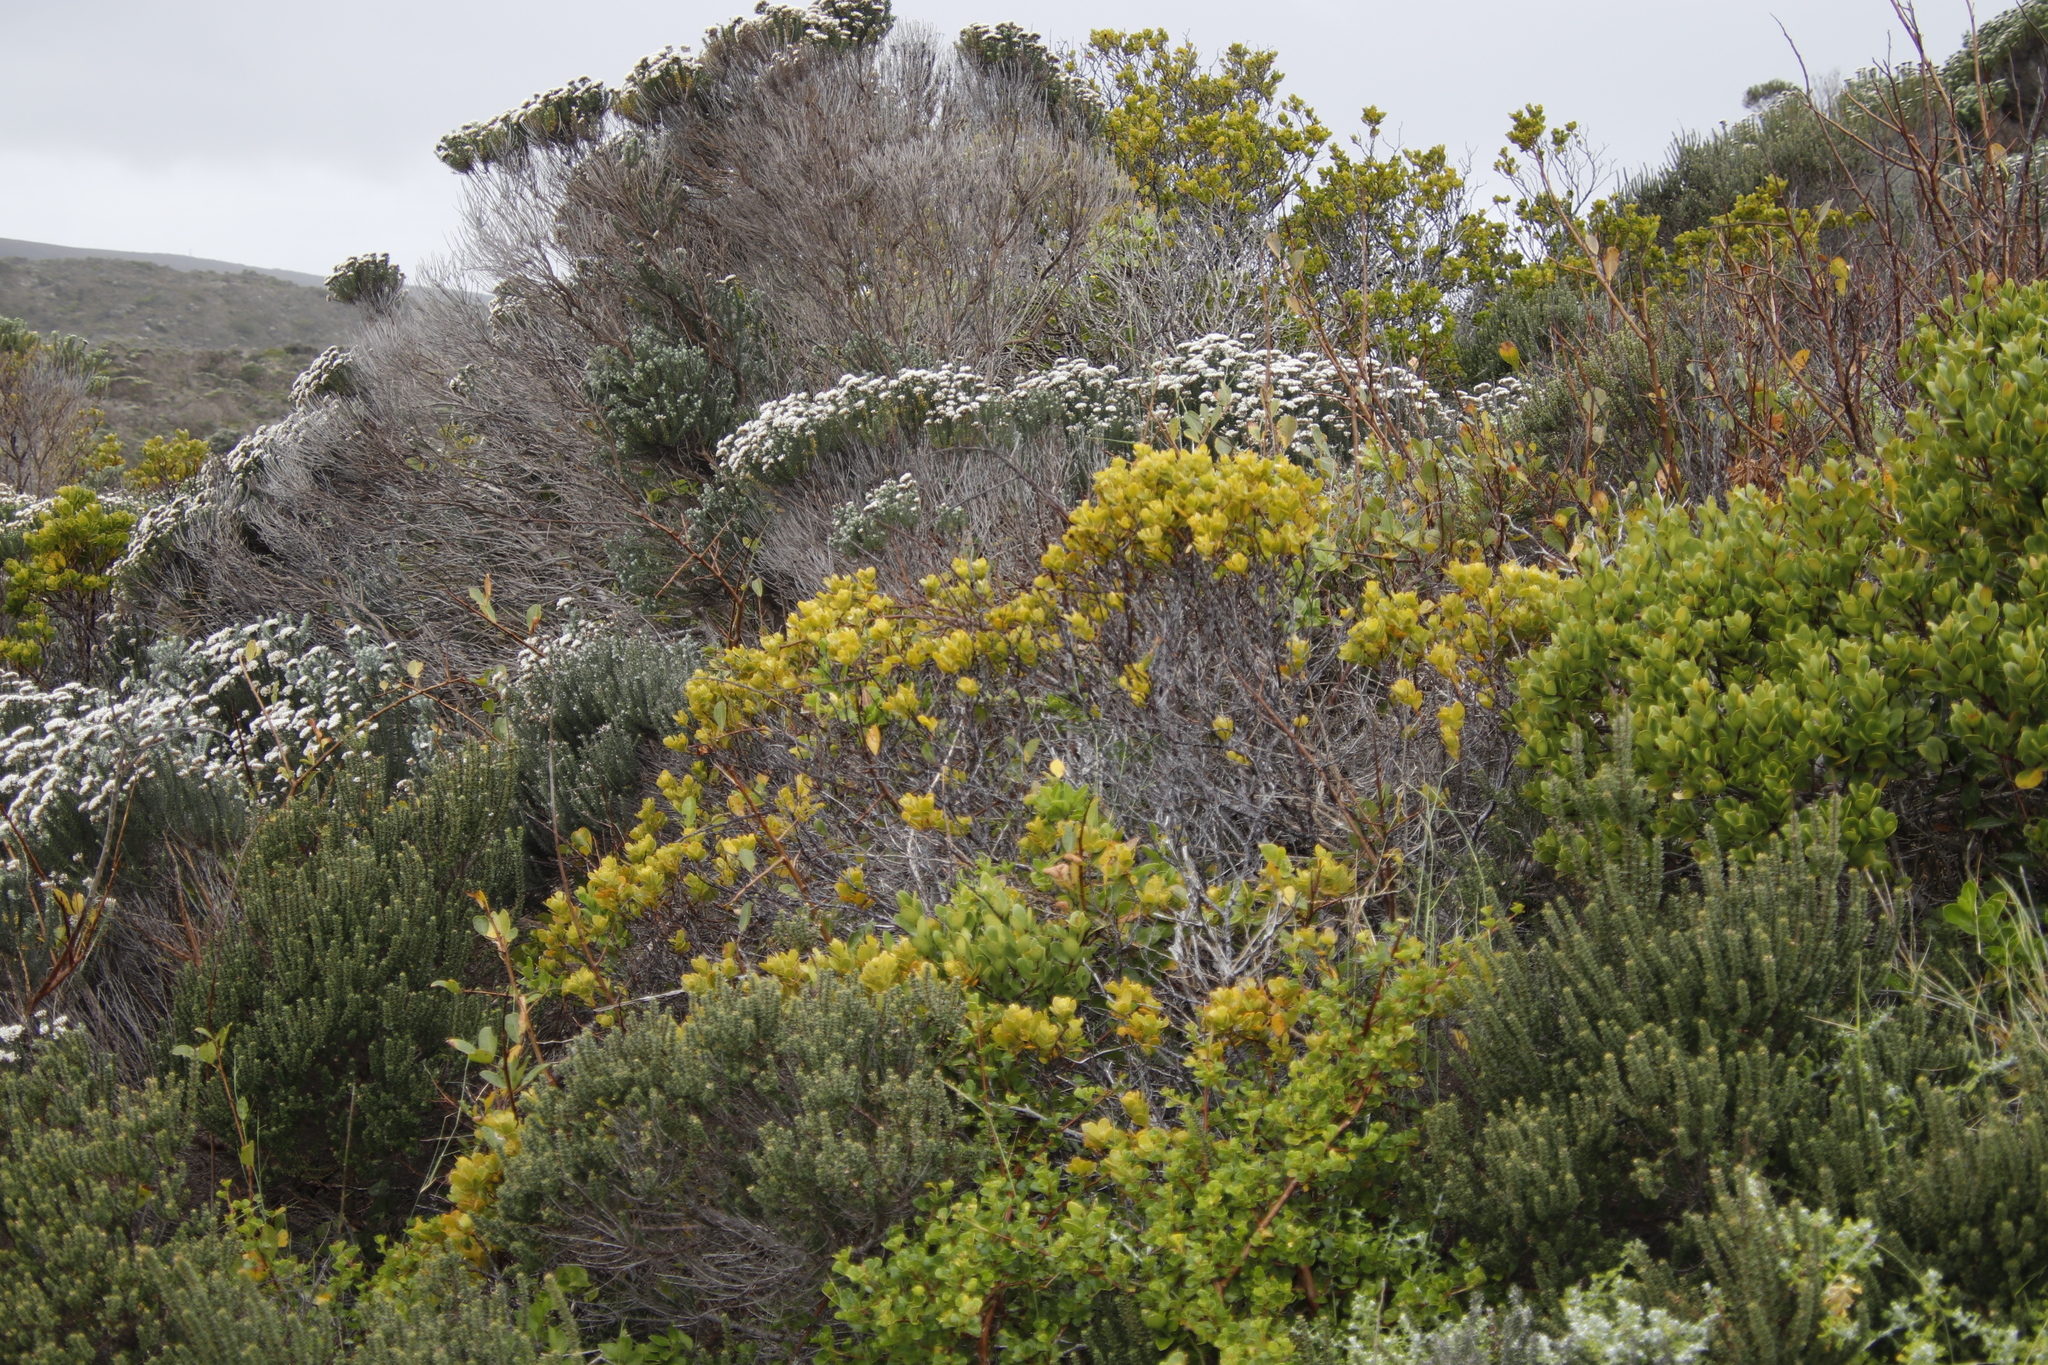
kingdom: Plantae
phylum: Tracheophyta
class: Magnoliopsida
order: Santalales
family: Santalaceae
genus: Osyris
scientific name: Osyris compressa
